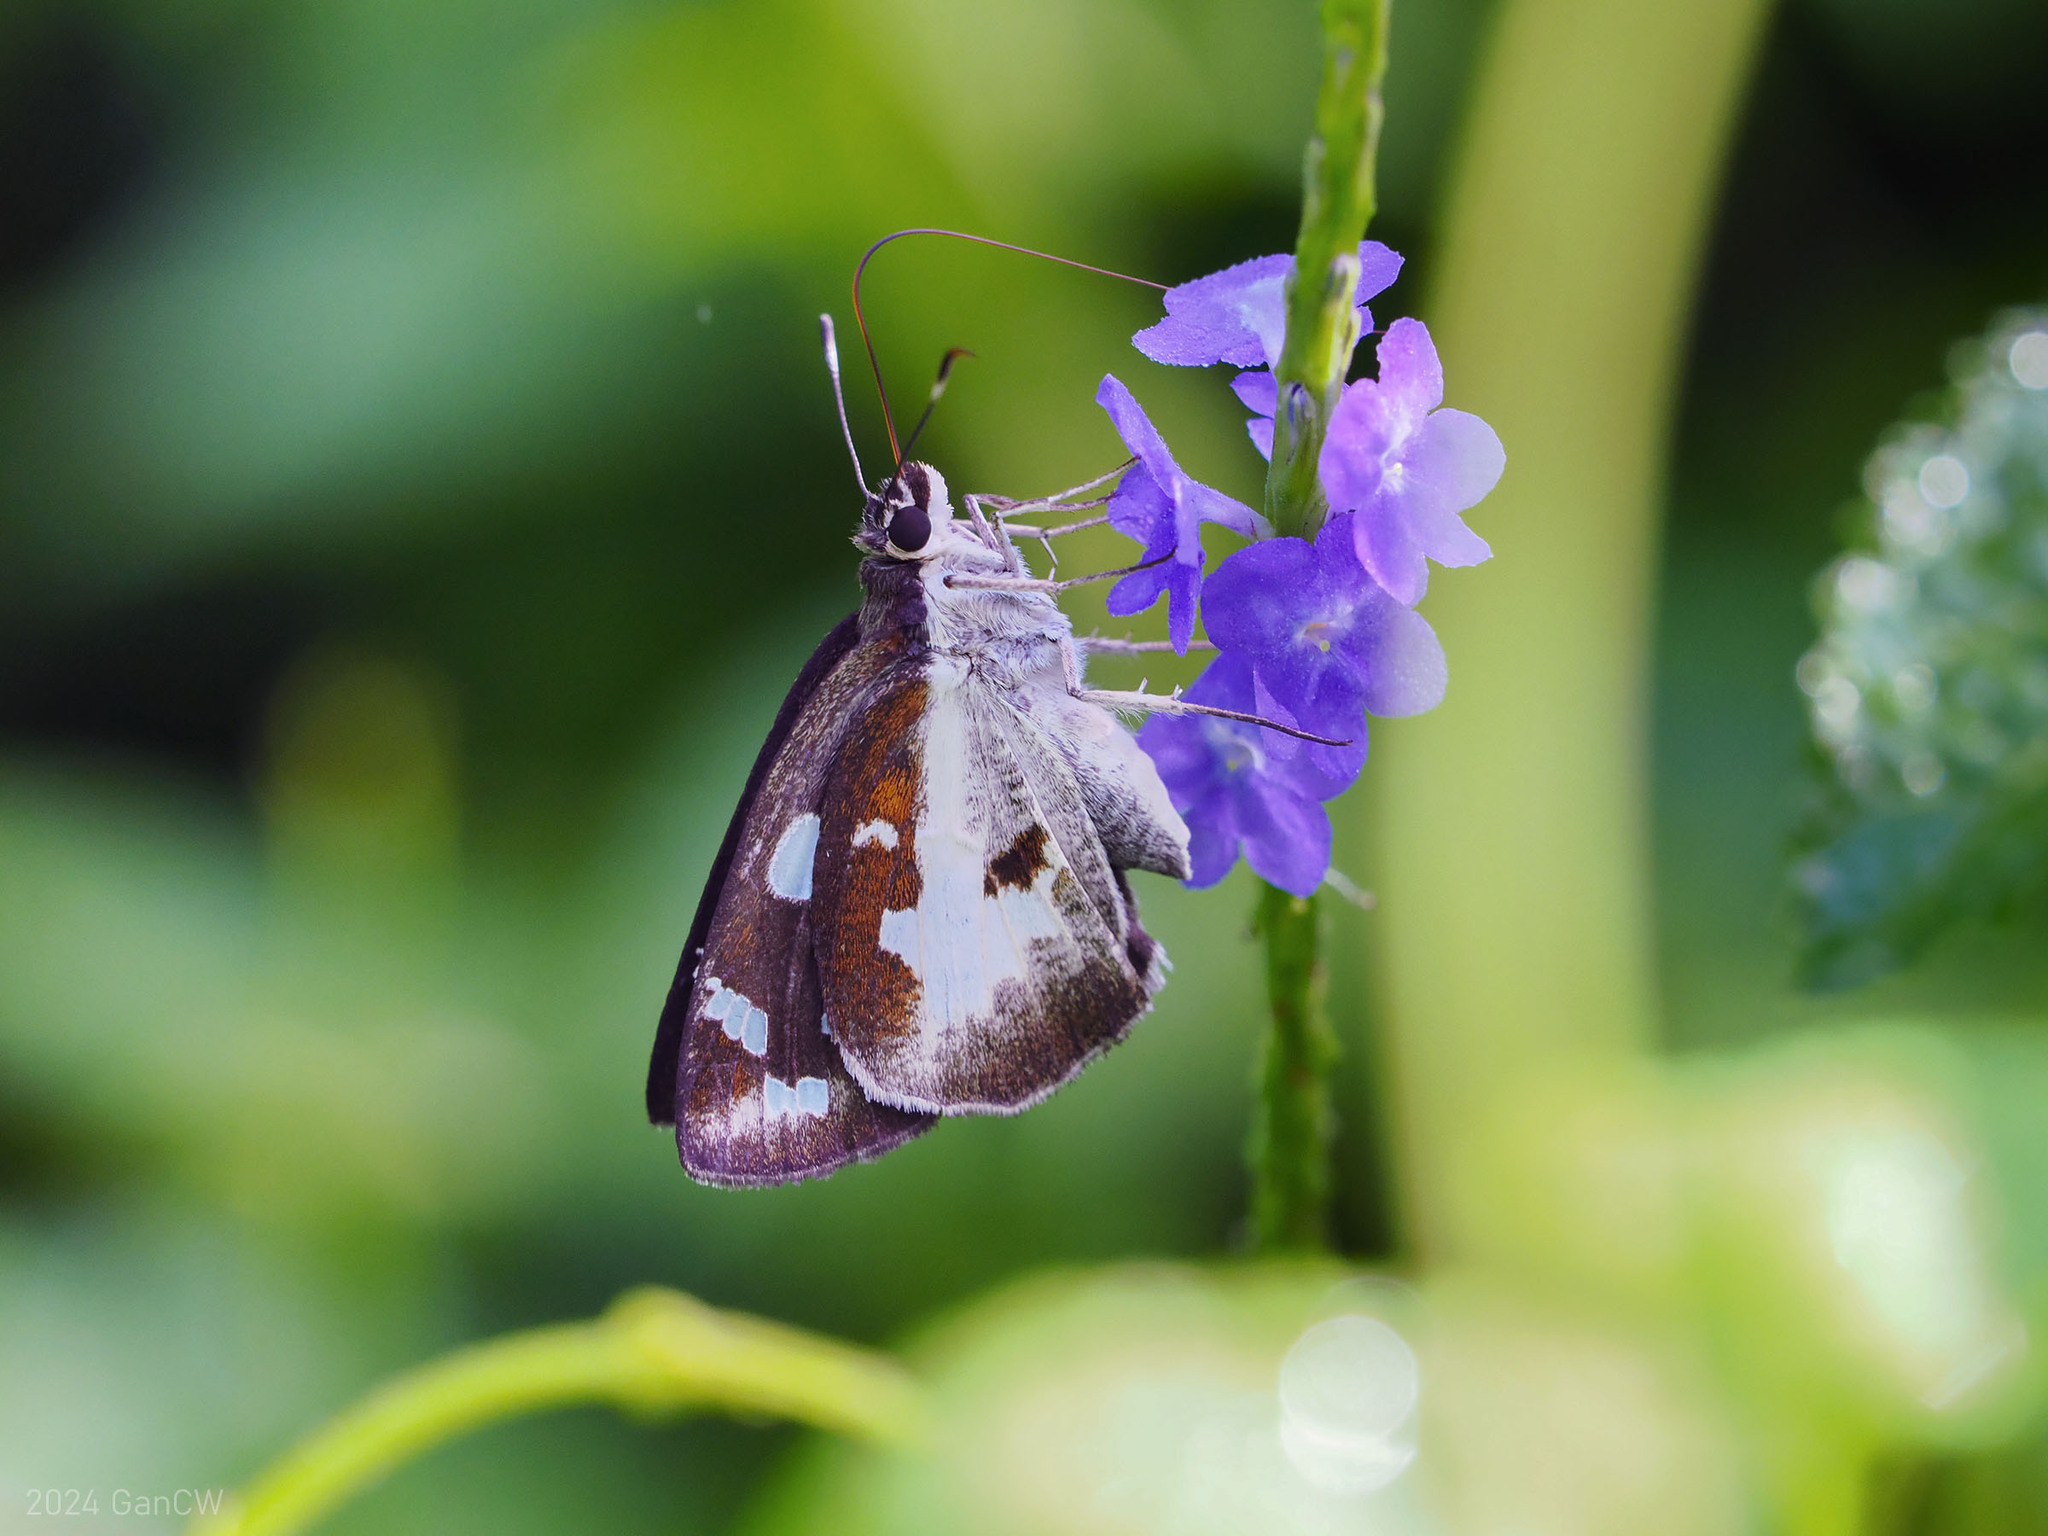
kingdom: Animalia
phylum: Arthropoda
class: Insecta
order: Lepidoptera
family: Hesperiidae
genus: Udaspes
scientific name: Udaspes folus
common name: Grass demon
